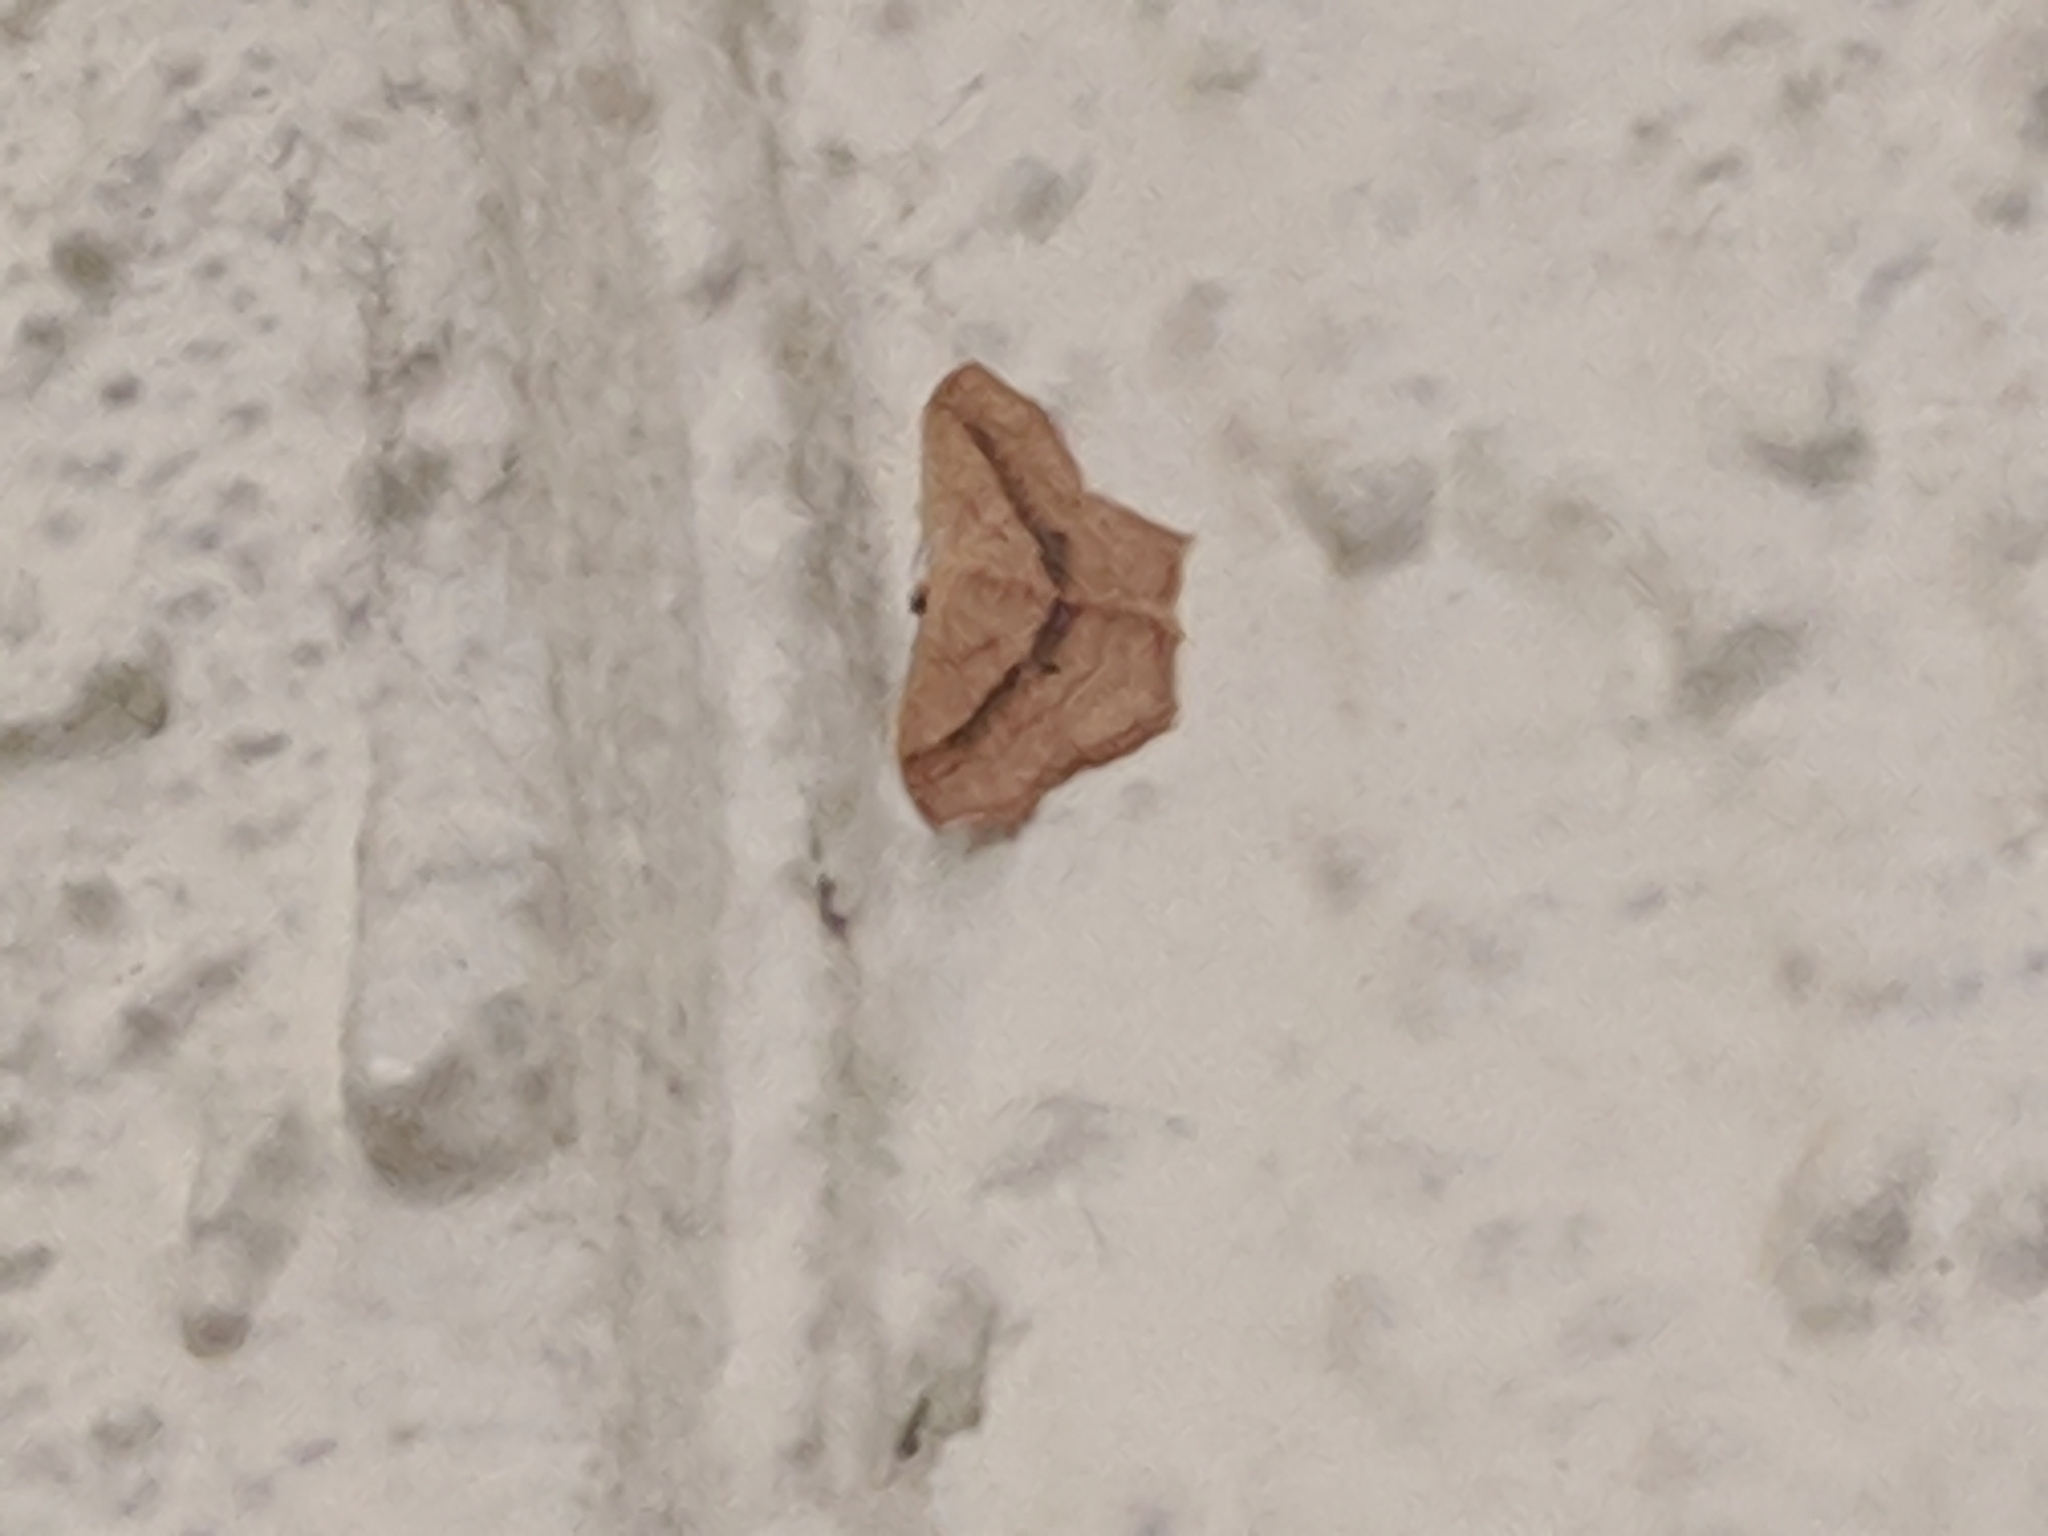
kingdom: Animalia
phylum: Arthropoda
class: Insecta
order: Lepidoptera
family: Geometridae
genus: Scopula
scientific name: Scopula imitaria
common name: Small blood-vein
